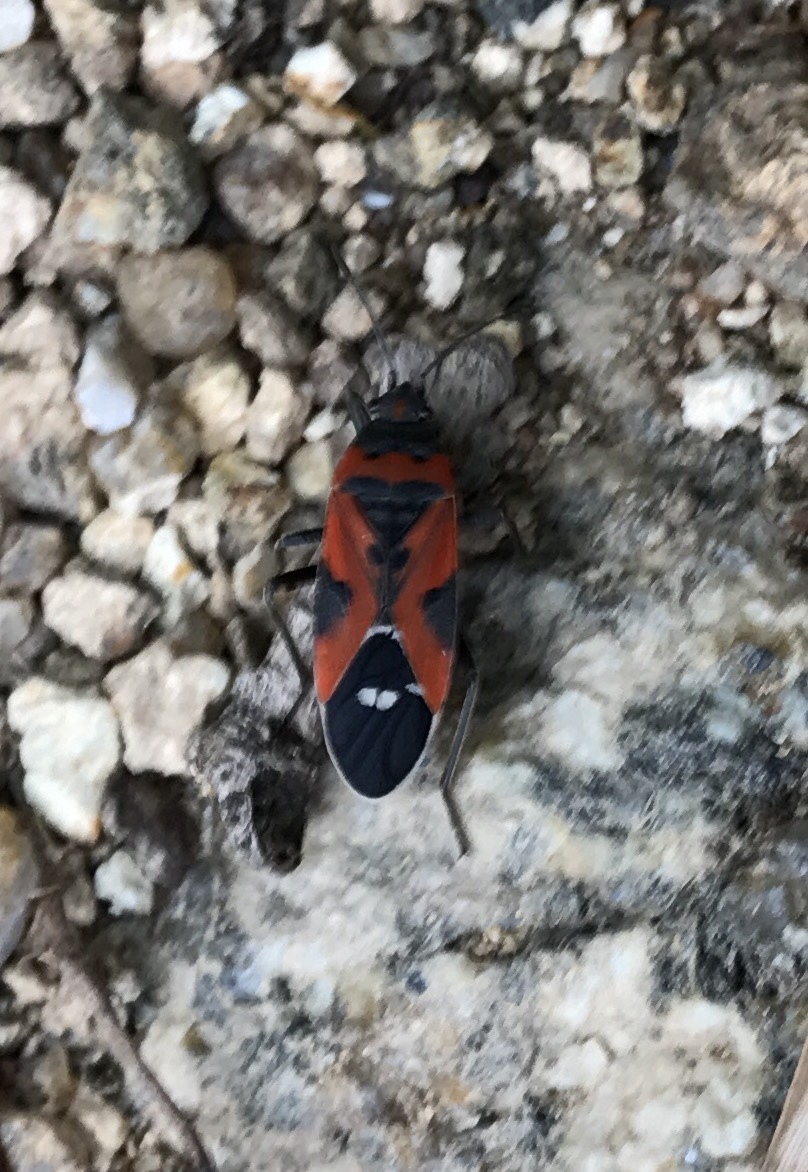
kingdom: Animalia
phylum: Arthropoda
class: Insecta
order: Hemiptera
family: Lygaeidae
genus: Lygaeus
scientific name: Lygaeus reclivatus
